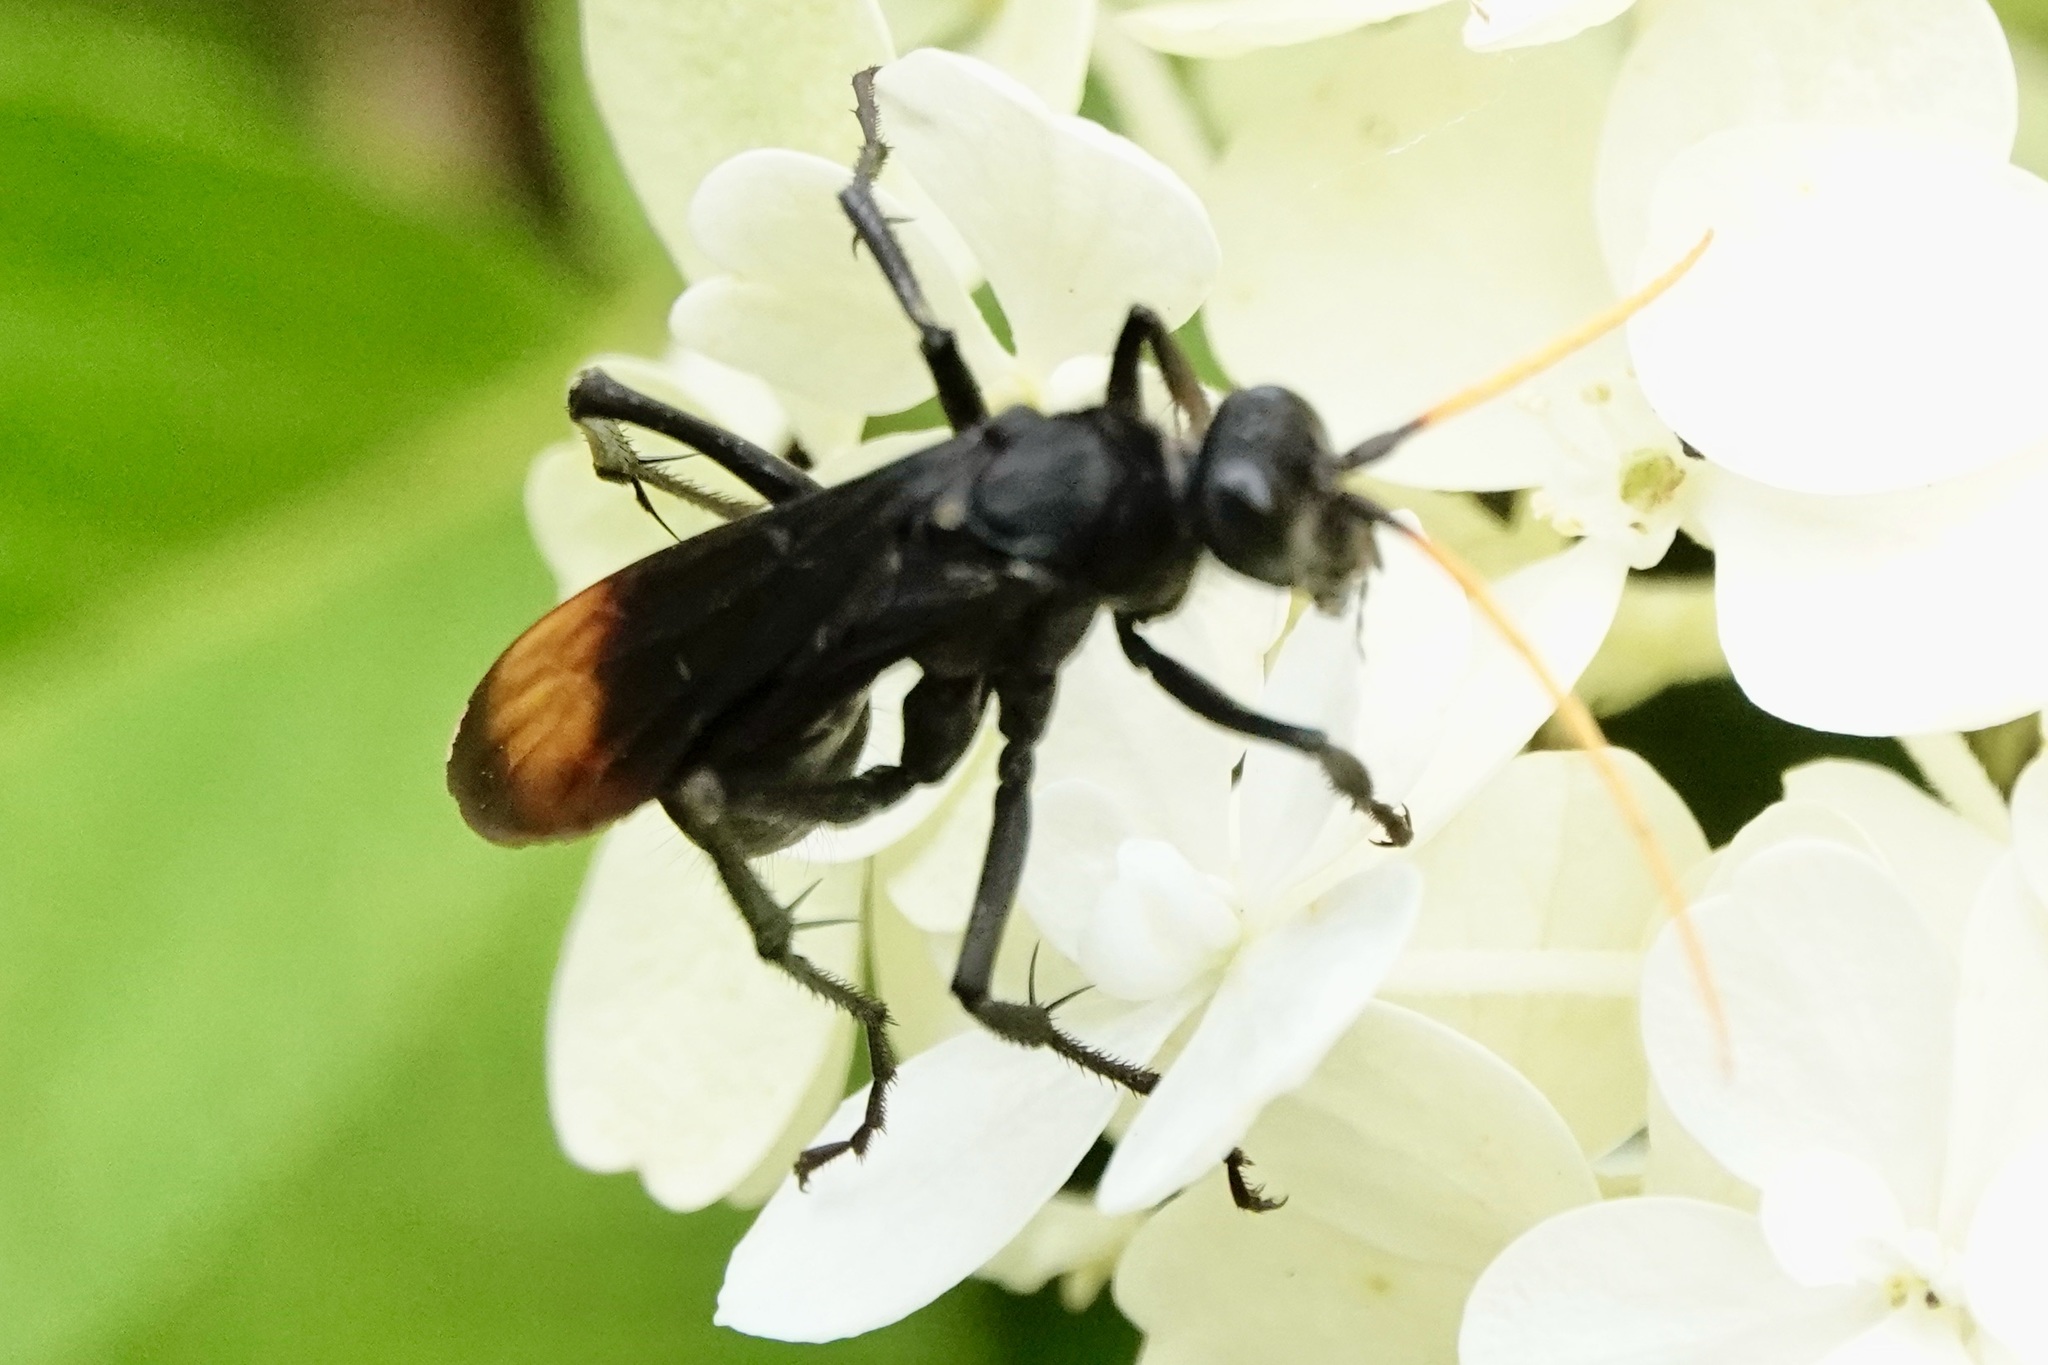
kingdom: Animalia
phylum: Arthropoda
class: Insecta
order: Hymenoptera
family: Pompilidae
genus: Entypus
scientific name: Entypus unifasciatus
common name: Eastern tawny-horned spider wasp
